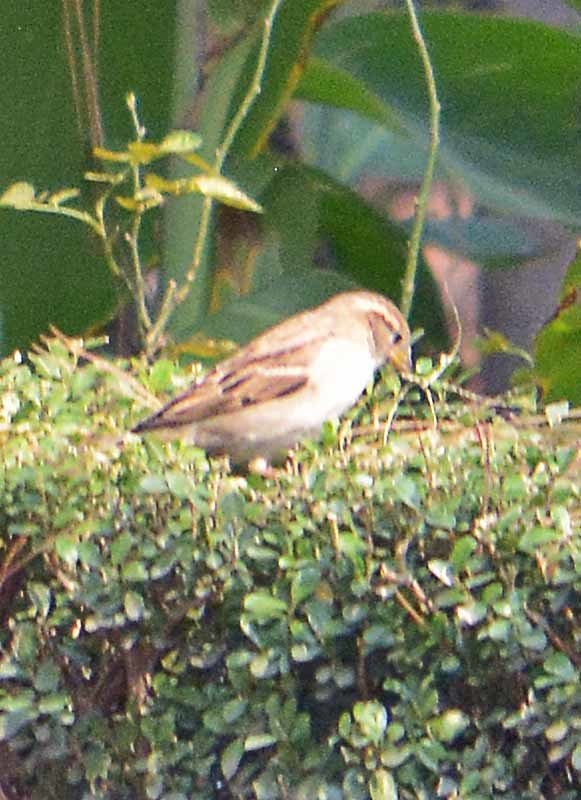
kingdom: Animalia
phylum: Chordata
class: Aves
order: Passeriformes
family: Passeridae
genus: Passer
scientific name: Passer domesticus
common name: House sparrow
